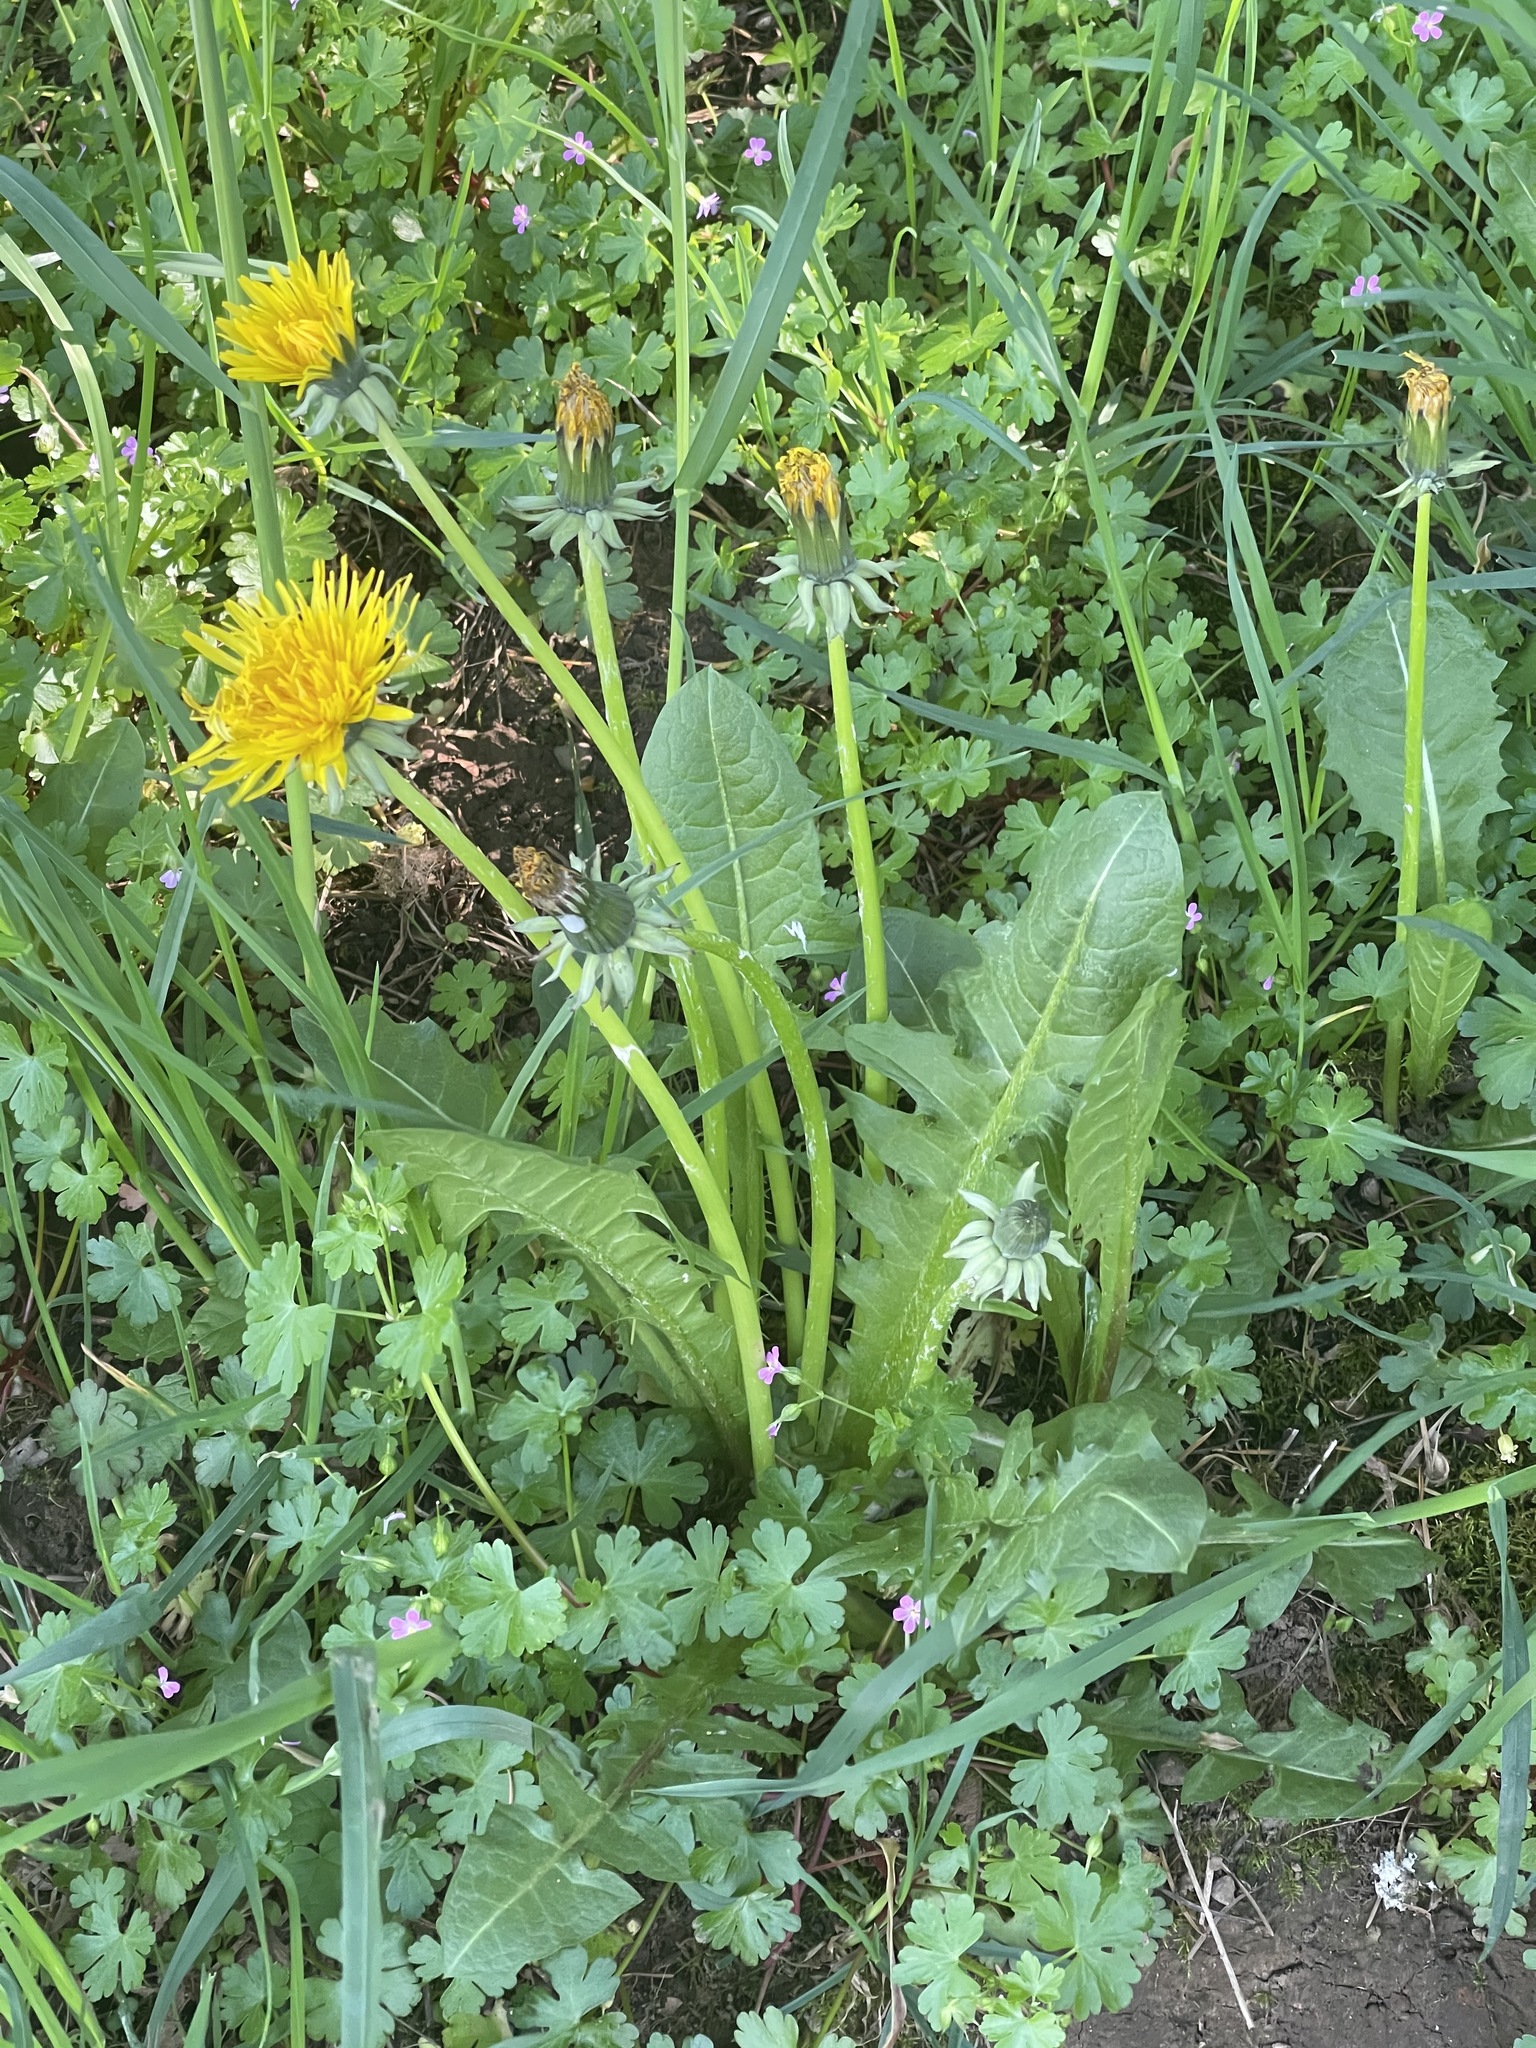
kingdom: Plantae
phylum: Tracheophyta
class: Magnoliopsida
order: Asterales
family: Asteraceae
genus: Taraxacum
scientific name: Taraxacum officinale
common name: Common dandelion
